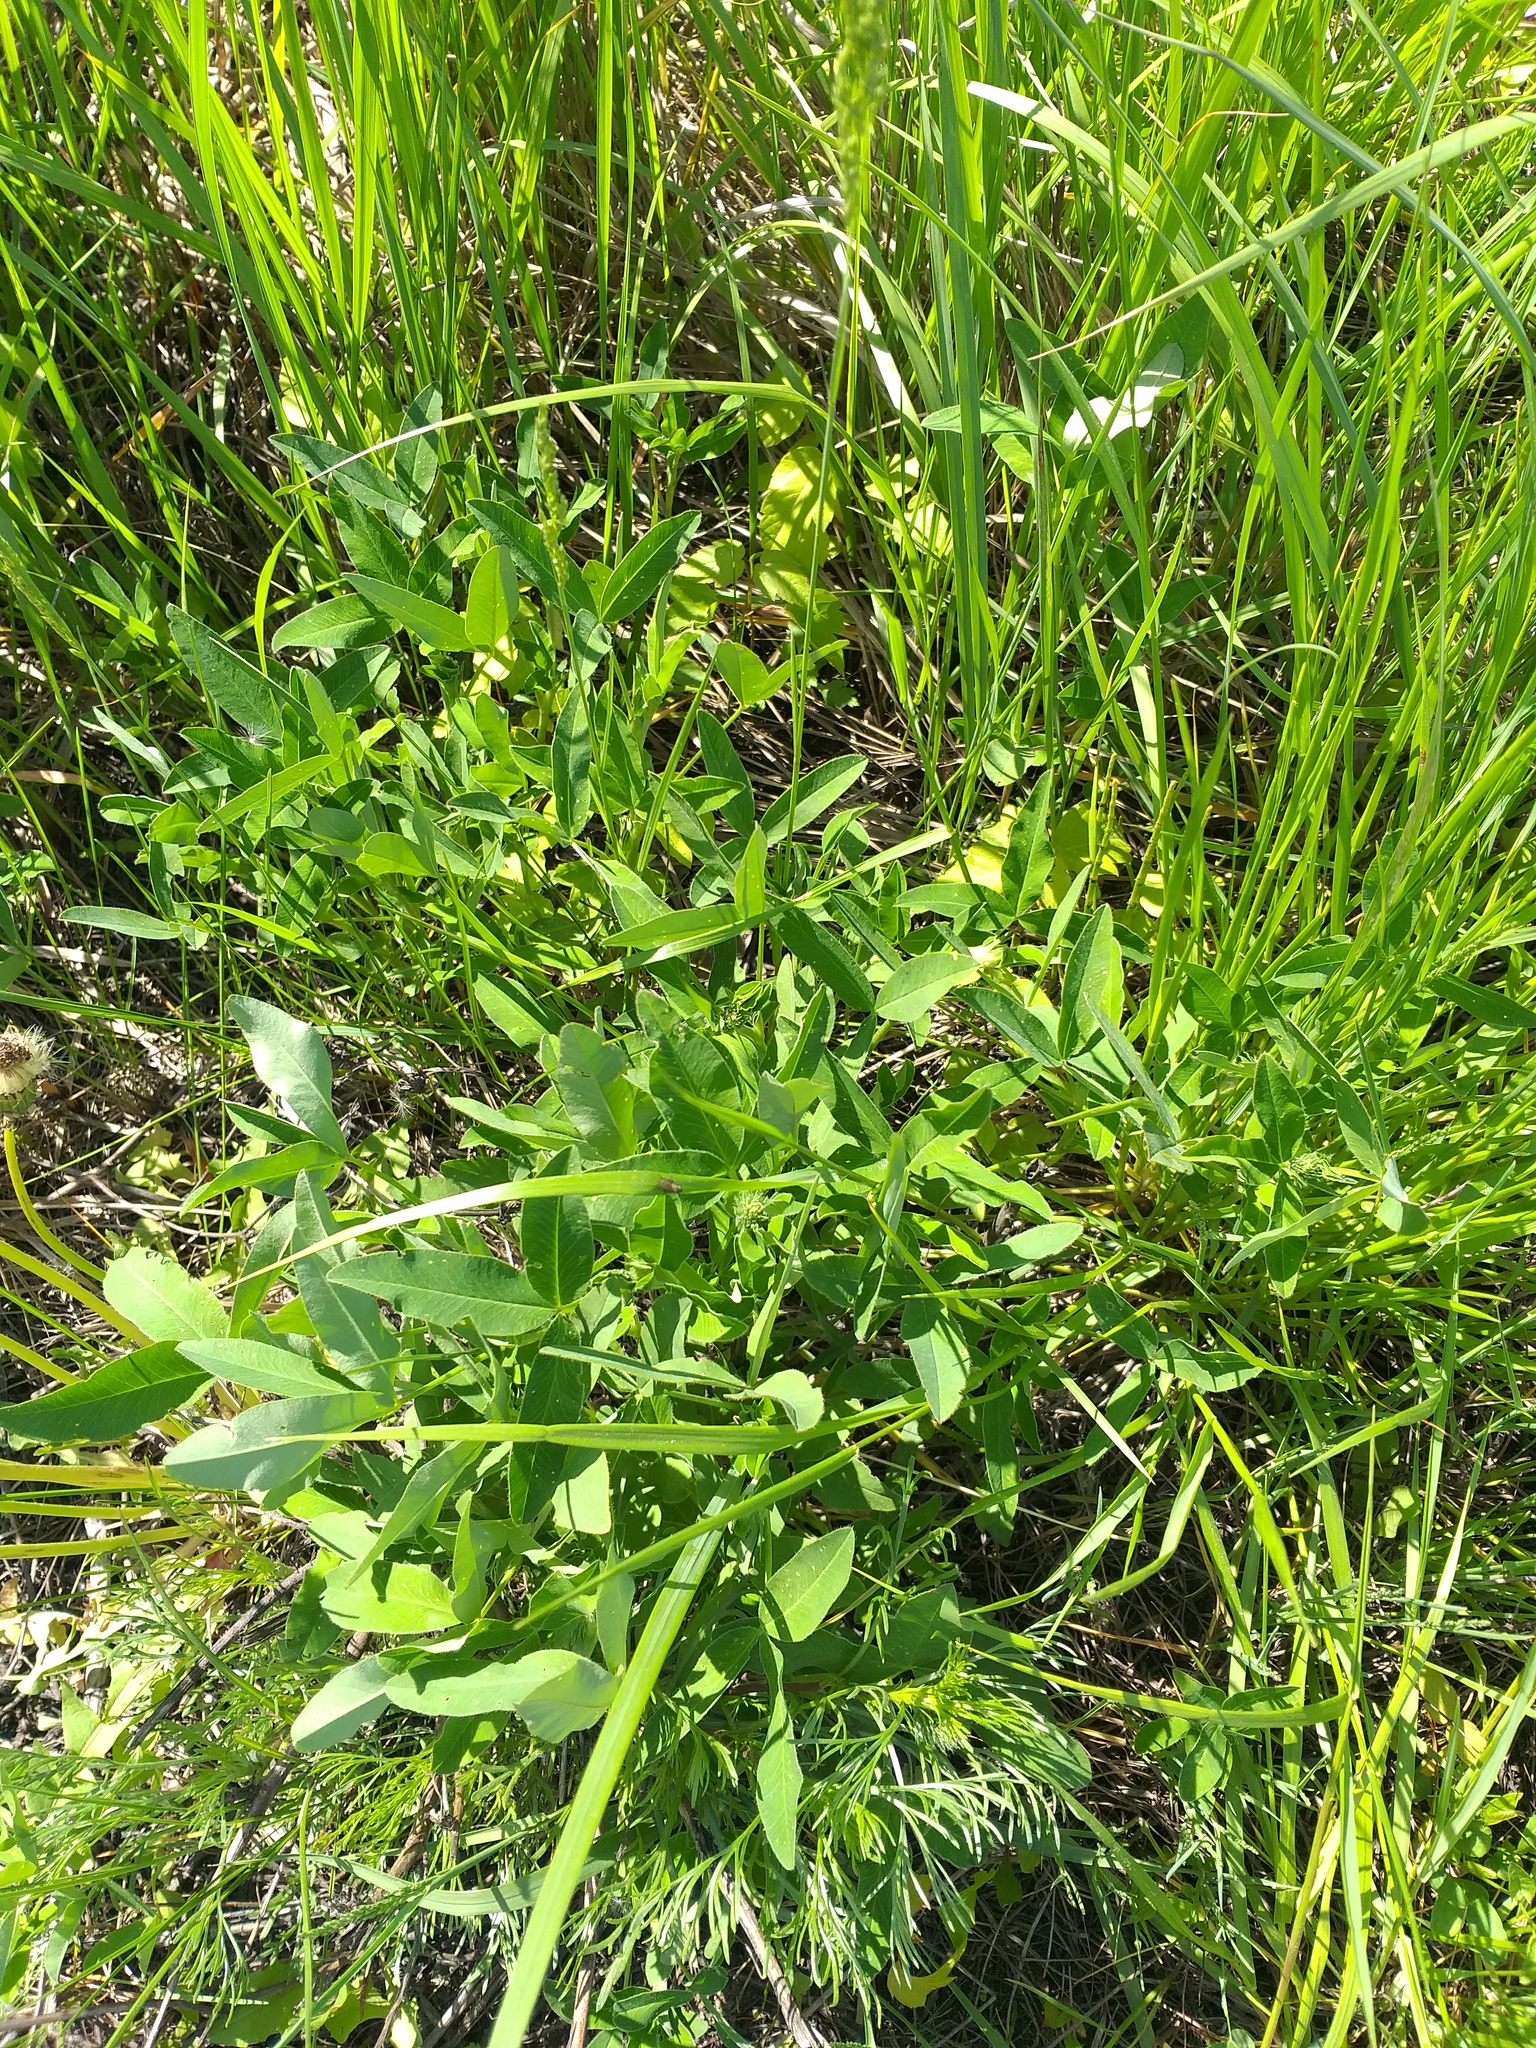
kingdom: Plantae
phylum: Tracheophyta
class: Magnoliopsida
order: Fabales
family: Fabaceae
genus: Trifolium
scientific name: Trifolium medium
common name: Zigzag clover
